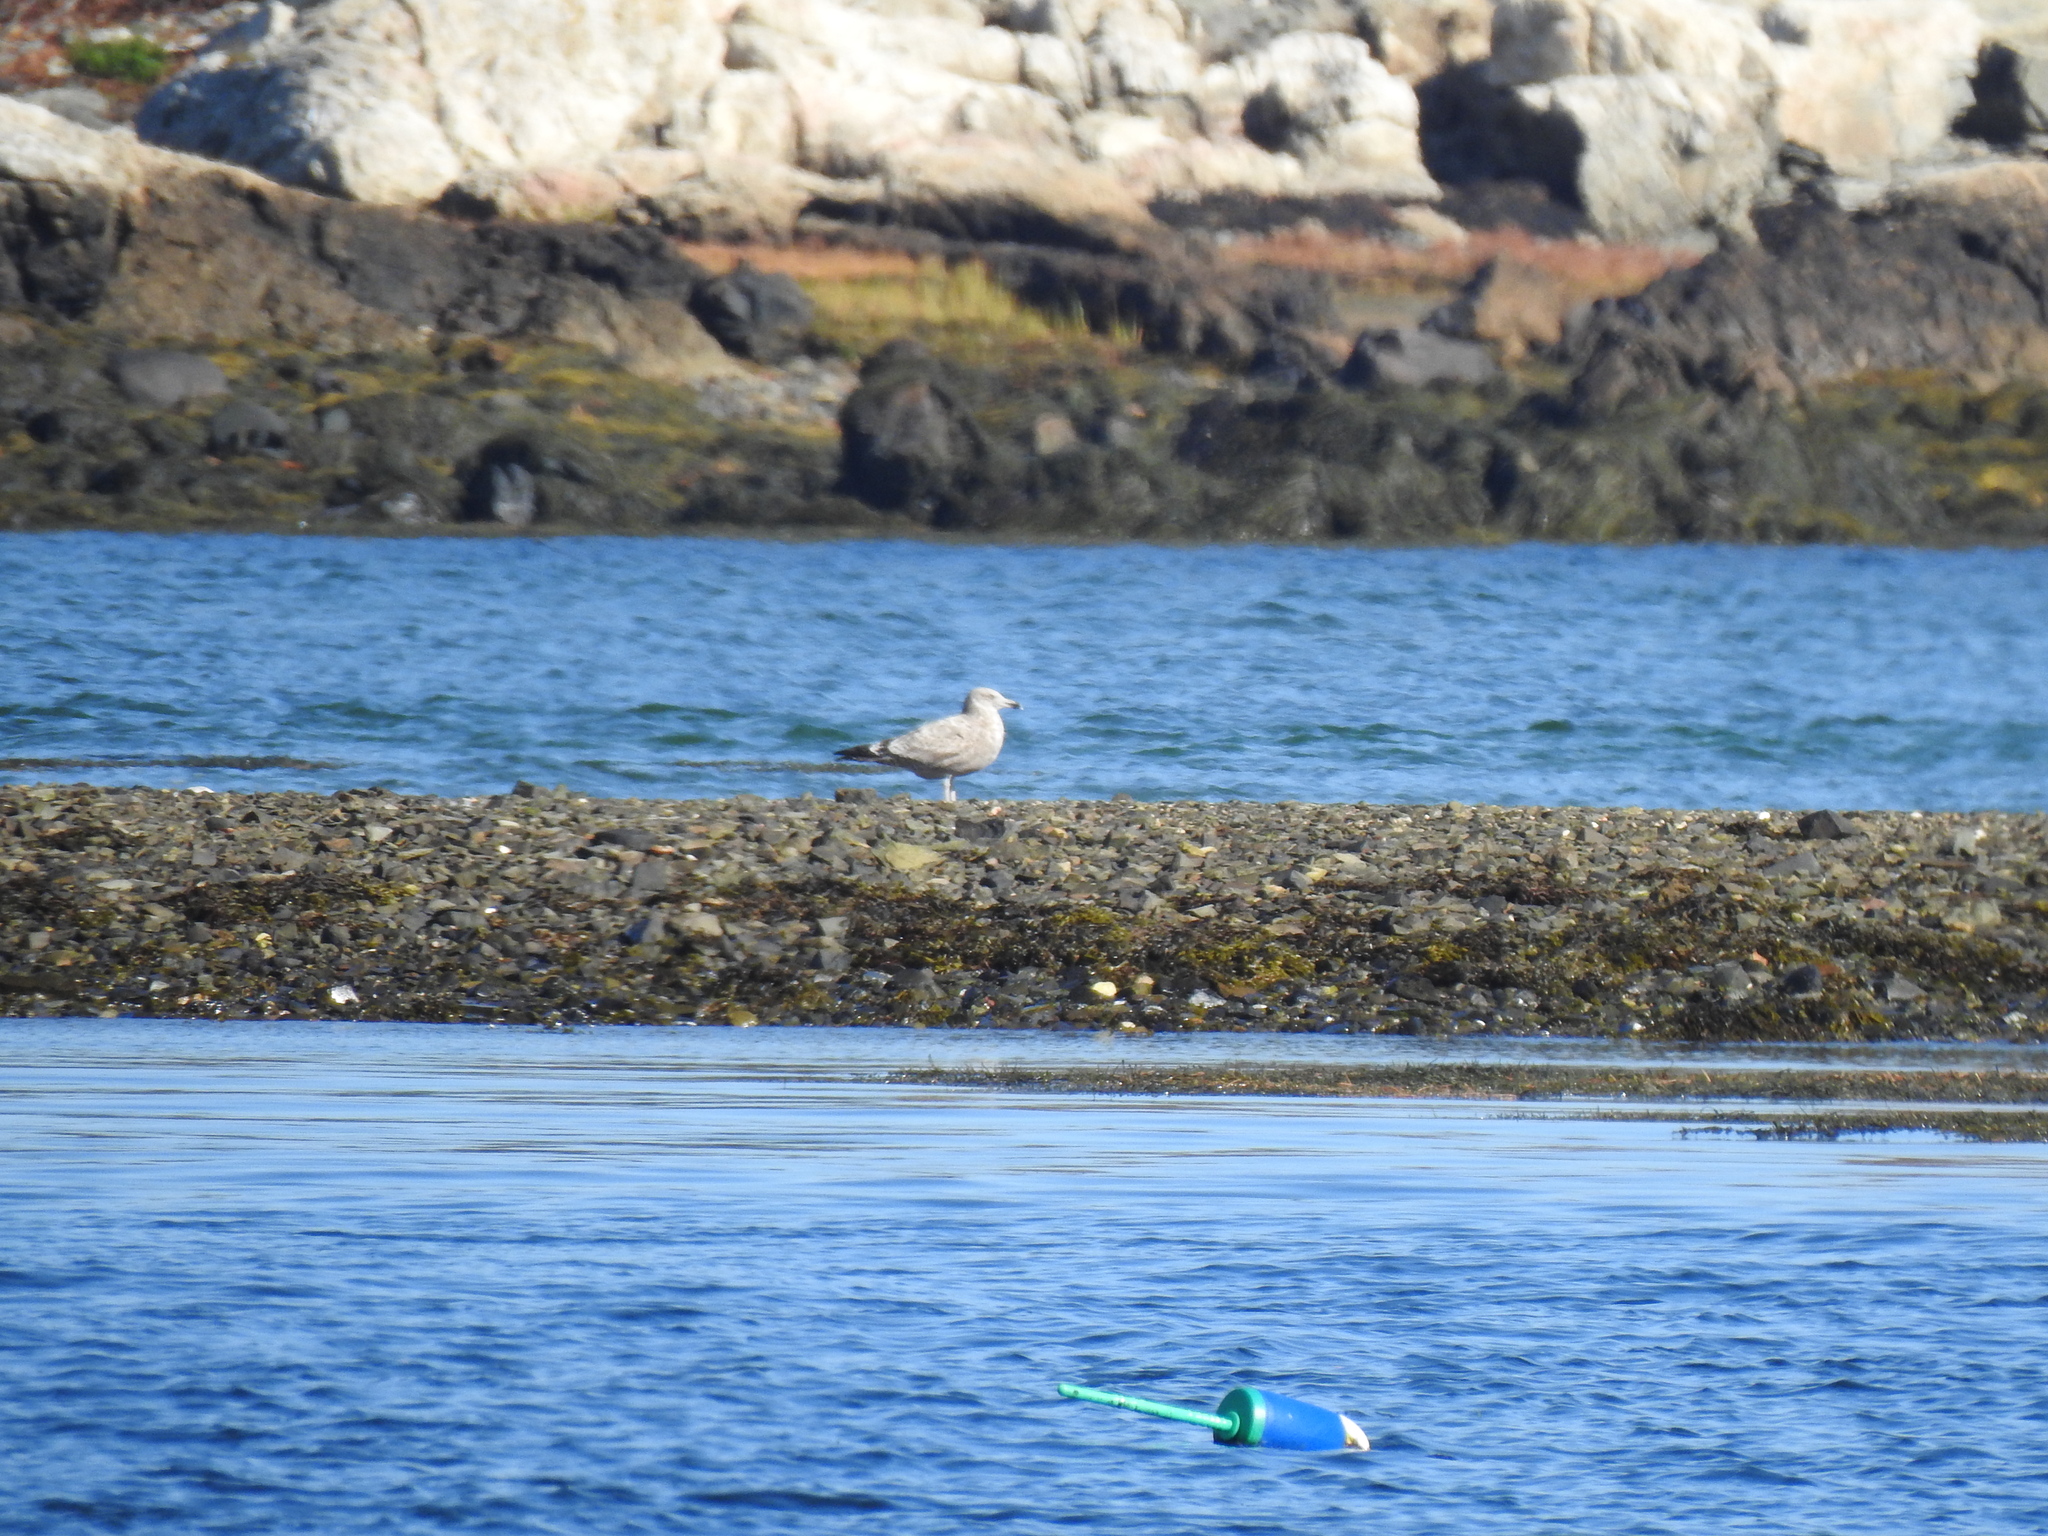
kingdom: Animalia
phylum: Chordata
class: Aves
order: Charadriiformes
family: Laridae
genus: Larus
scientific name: Larus argentatus
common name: Herring gull
